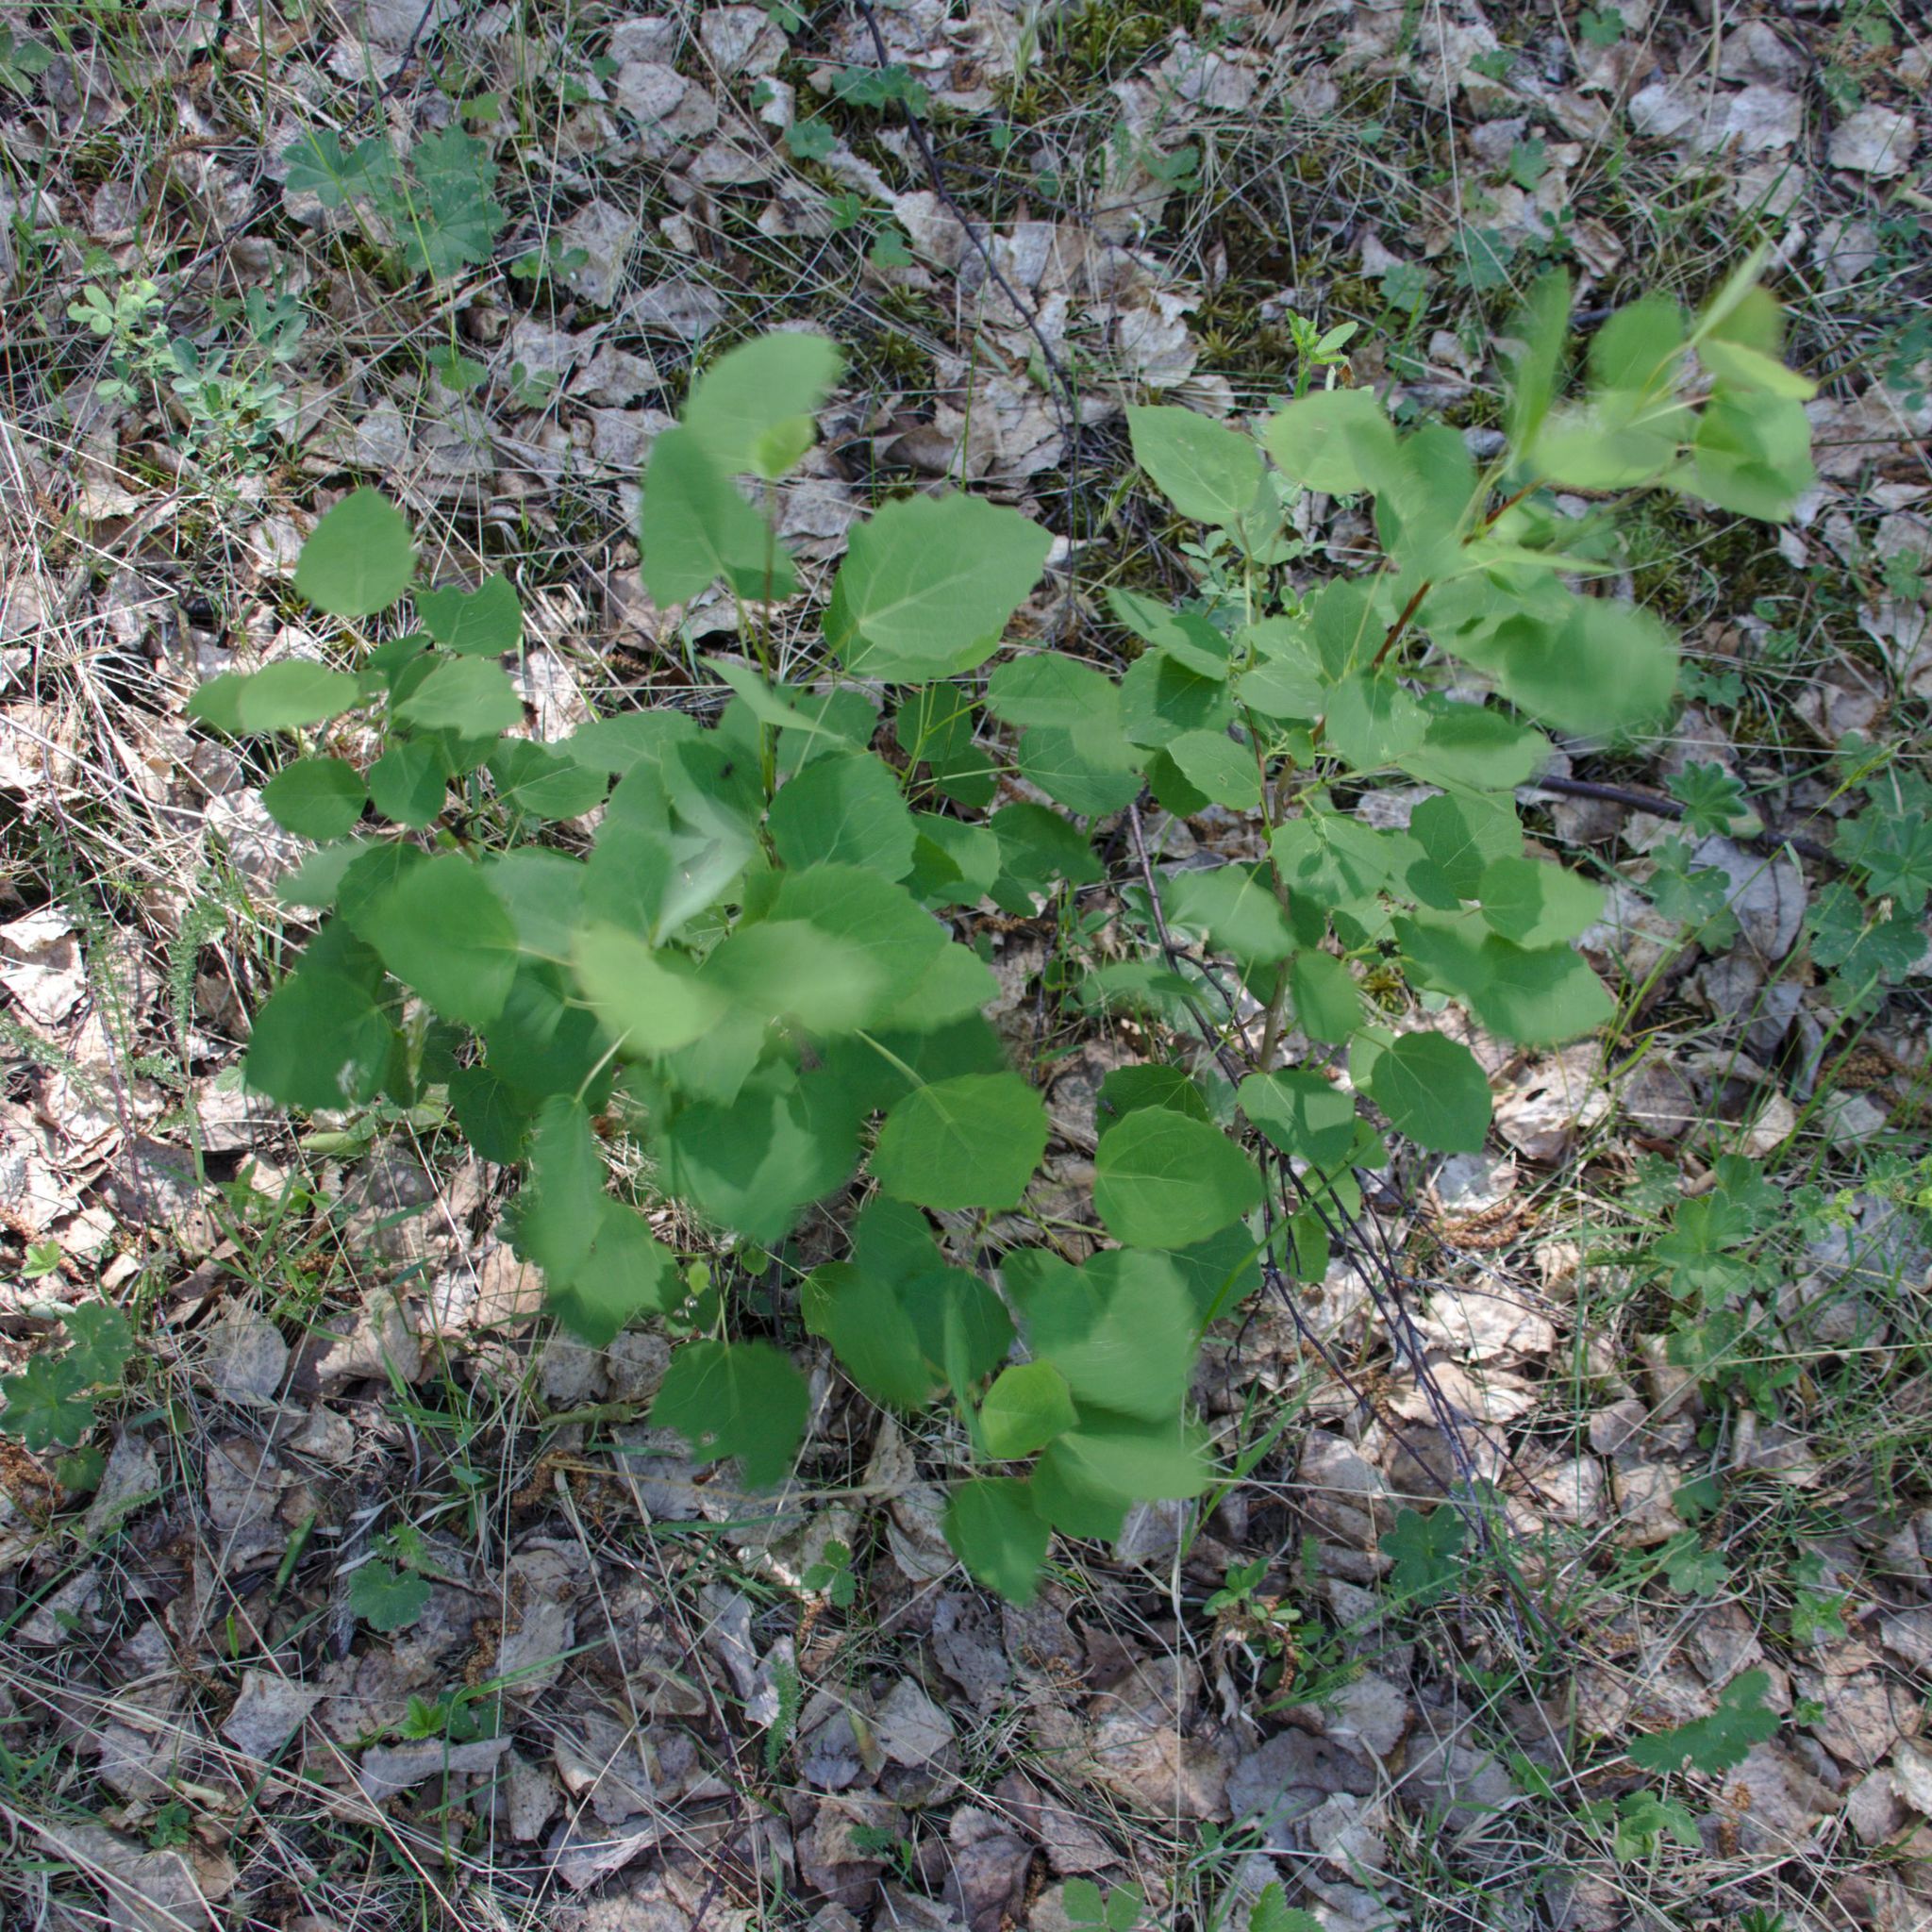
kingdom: Plantae
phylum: Tracheophyta
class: Magnoliopsida
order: Malpighiales
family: Salicaceae
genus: Populus
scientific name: Populus tremula
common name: European aspen
